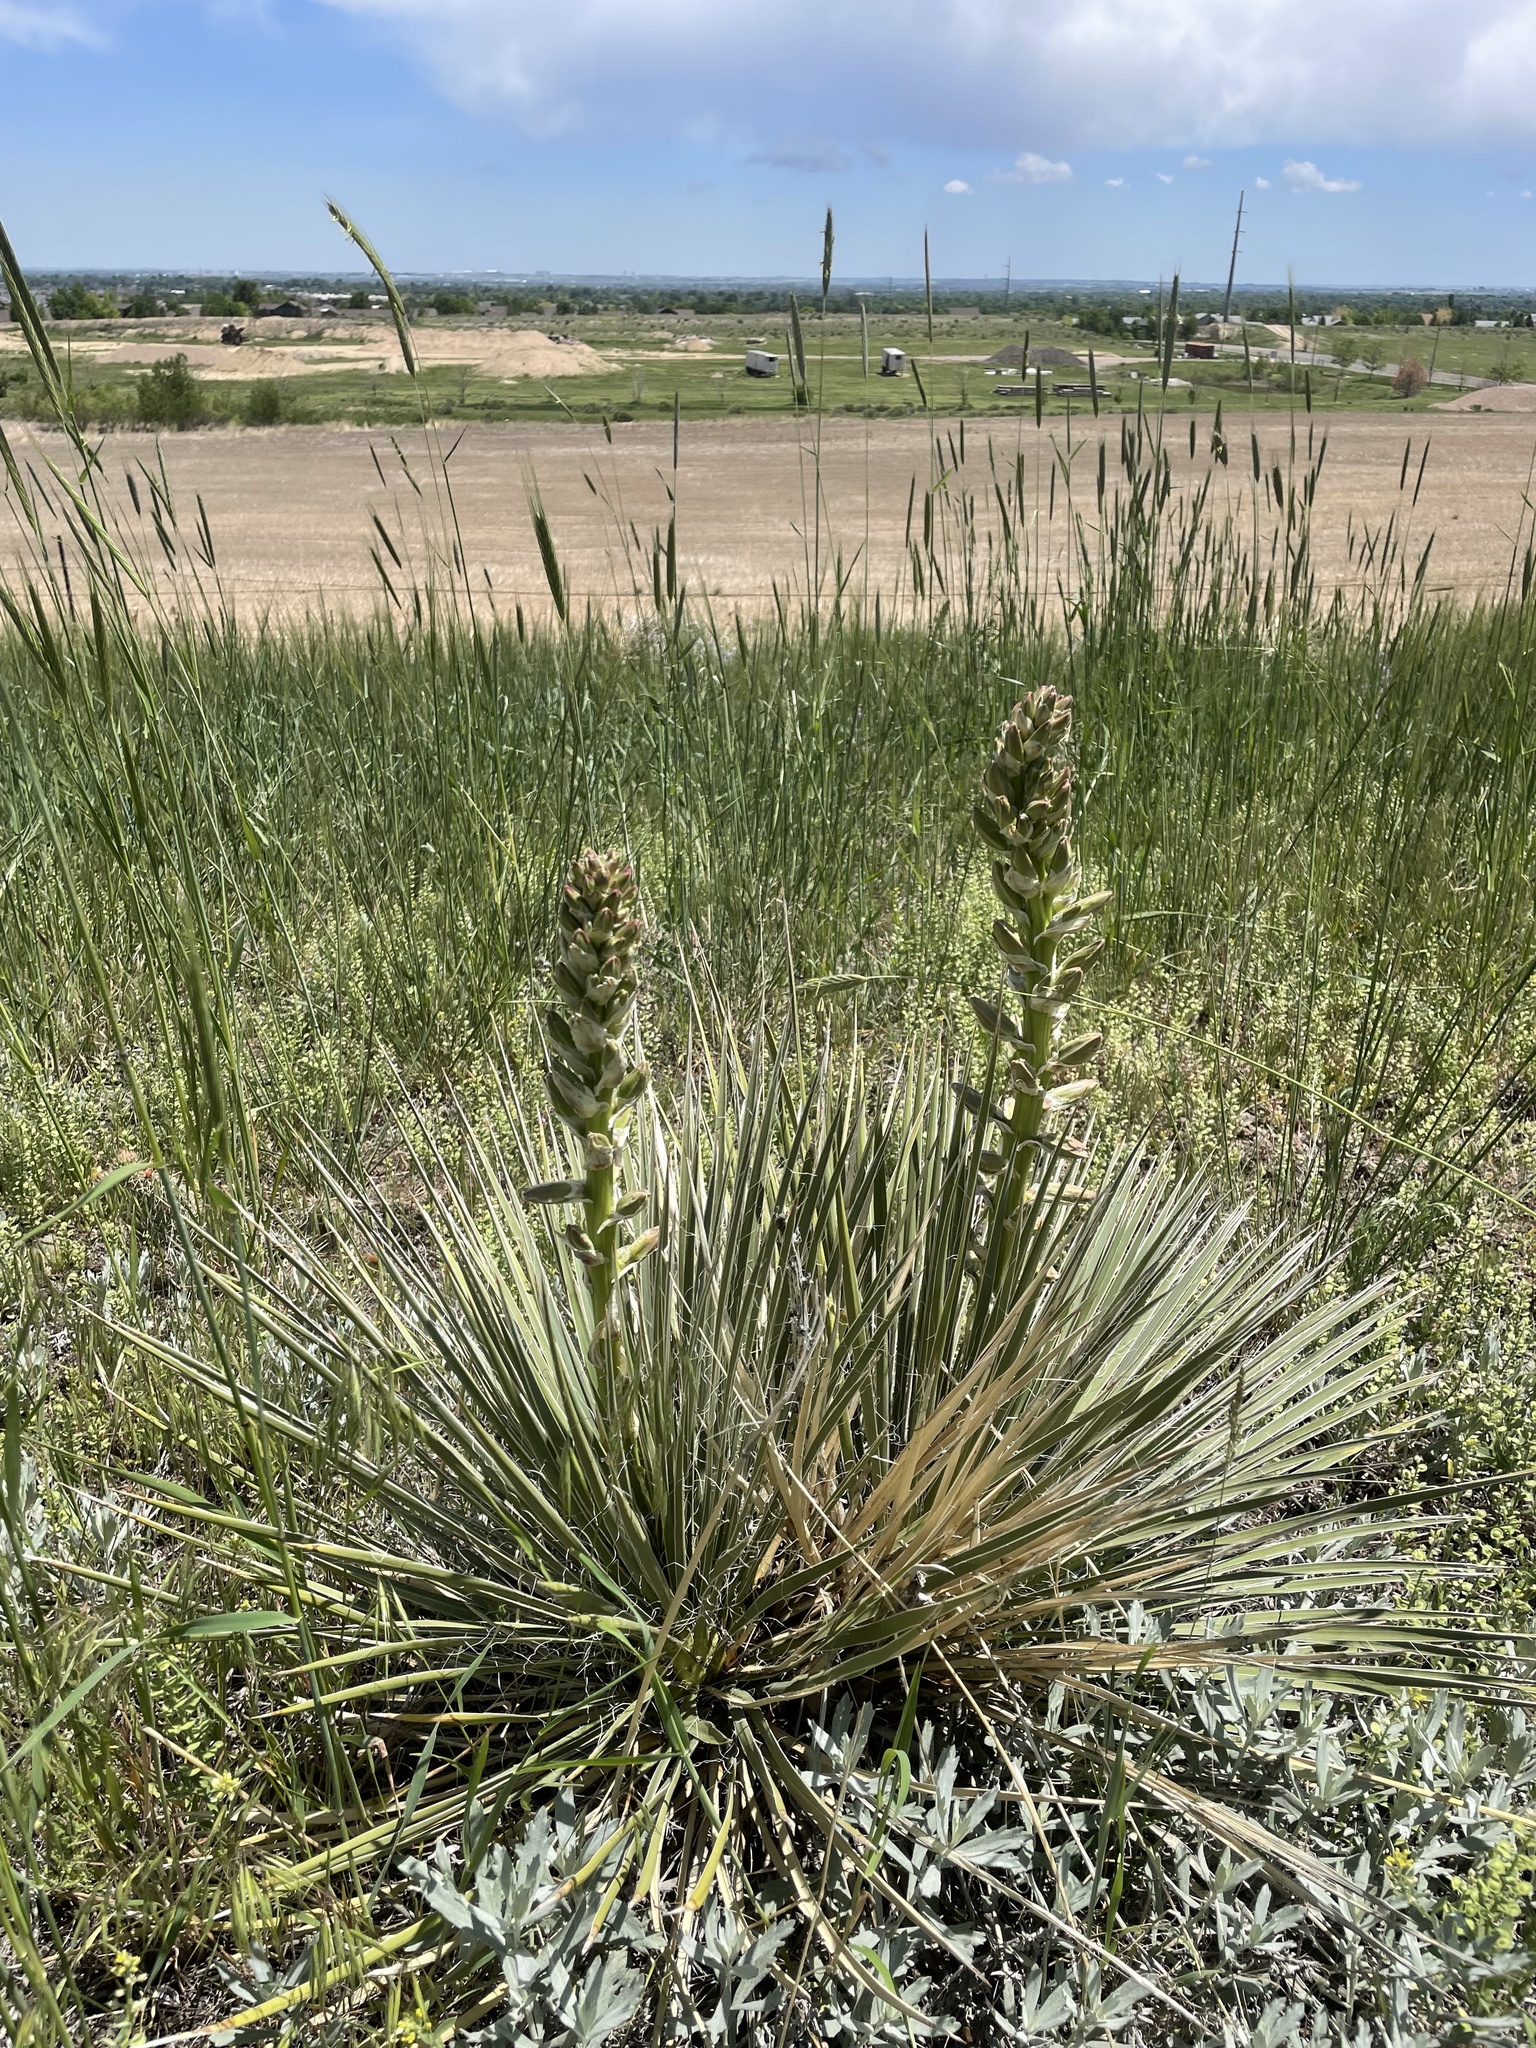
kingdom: Plantae
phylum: Tracheophyta
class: Liliopsida
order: Asparagales
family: Asparagaceae
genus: Yucca
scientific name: Yucca glauca
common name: Great plains yucca
